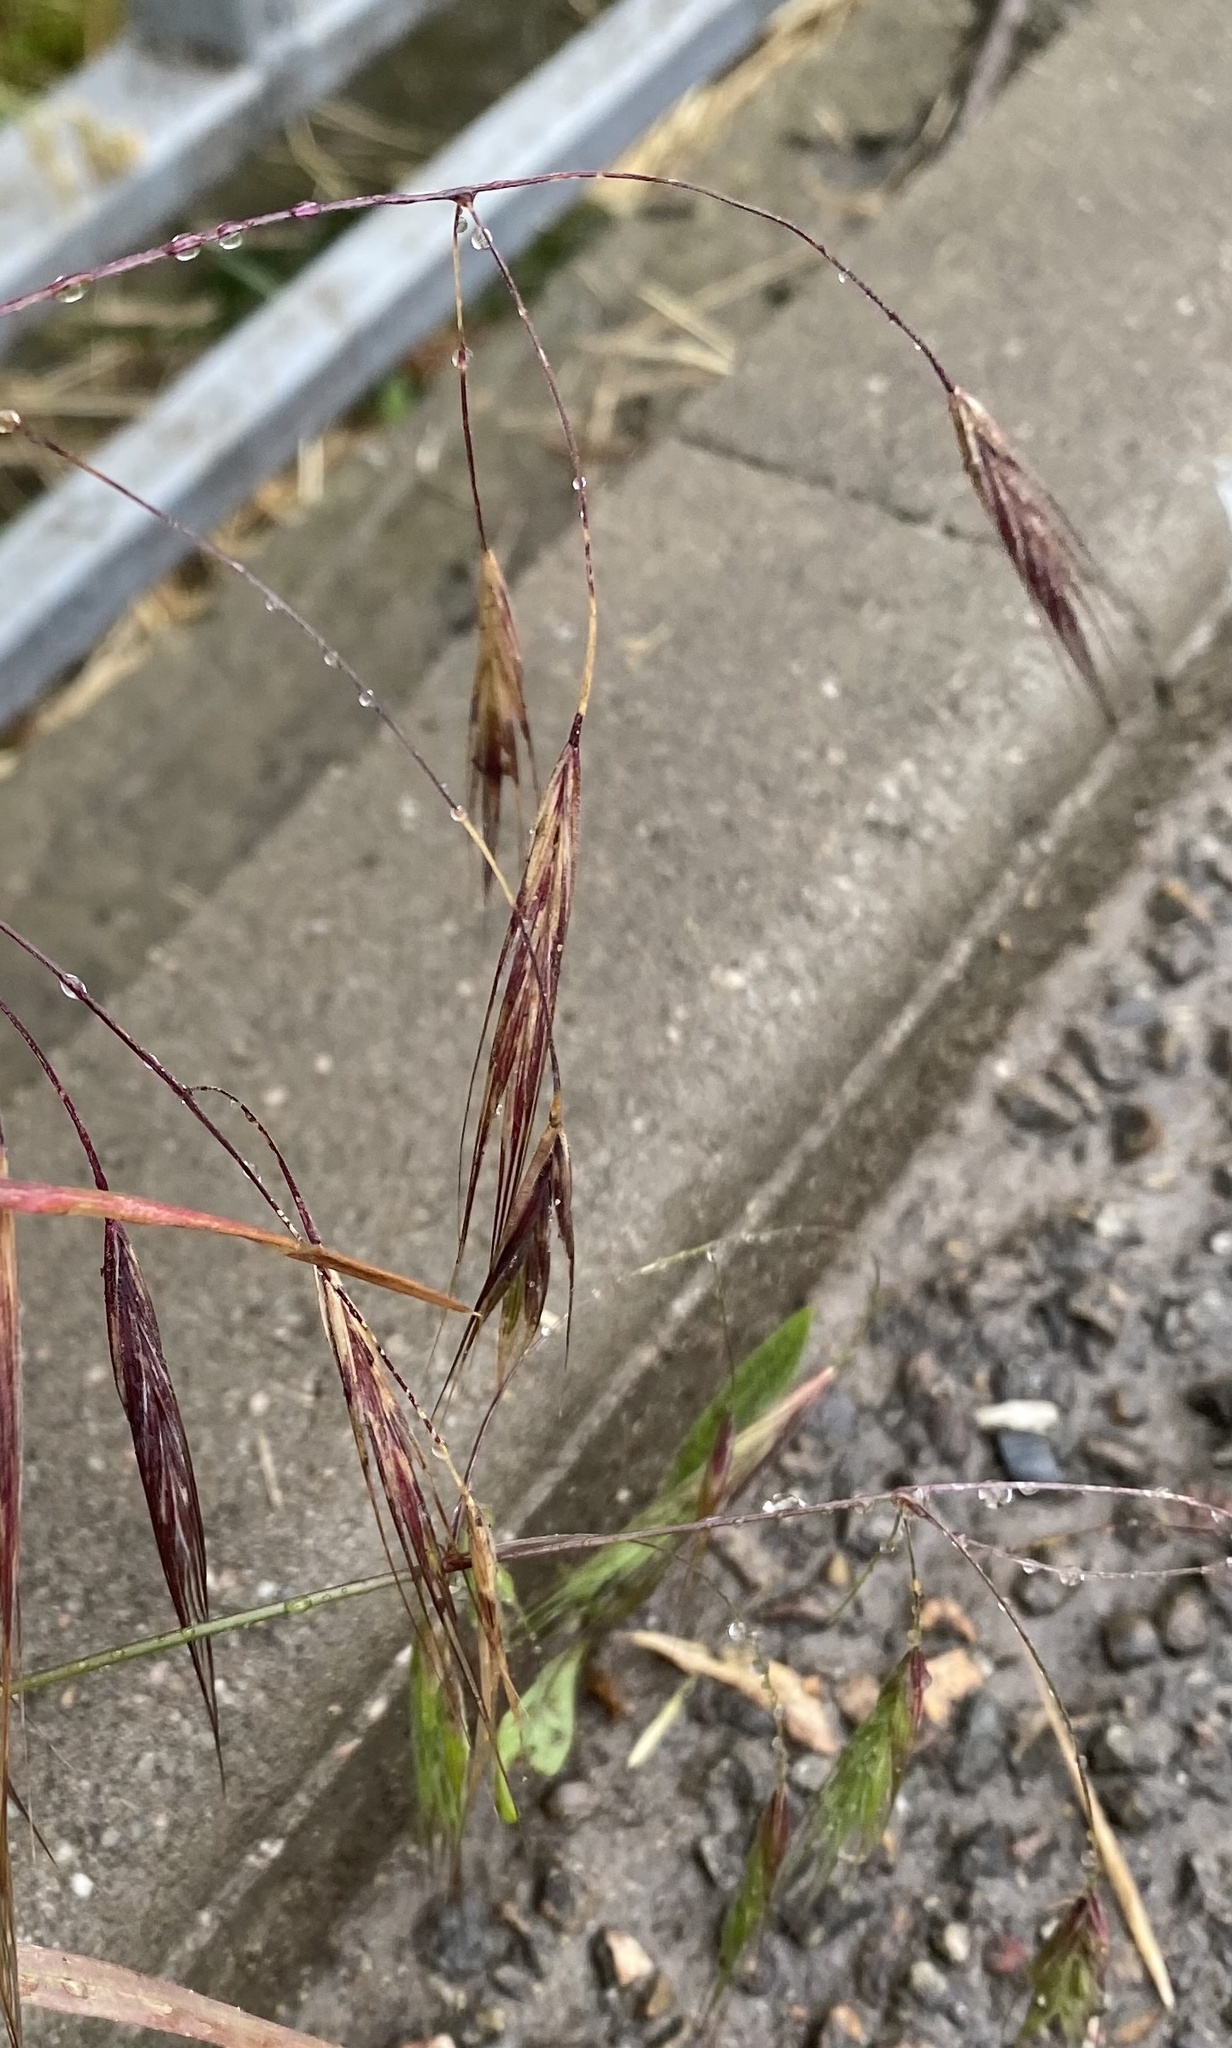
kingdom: Plantae
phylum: Tracheophyta
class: Liliopsida
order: Poales
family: Poaceae
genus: Bromus
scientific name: Bromus tectorum
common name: Cheatgrass
